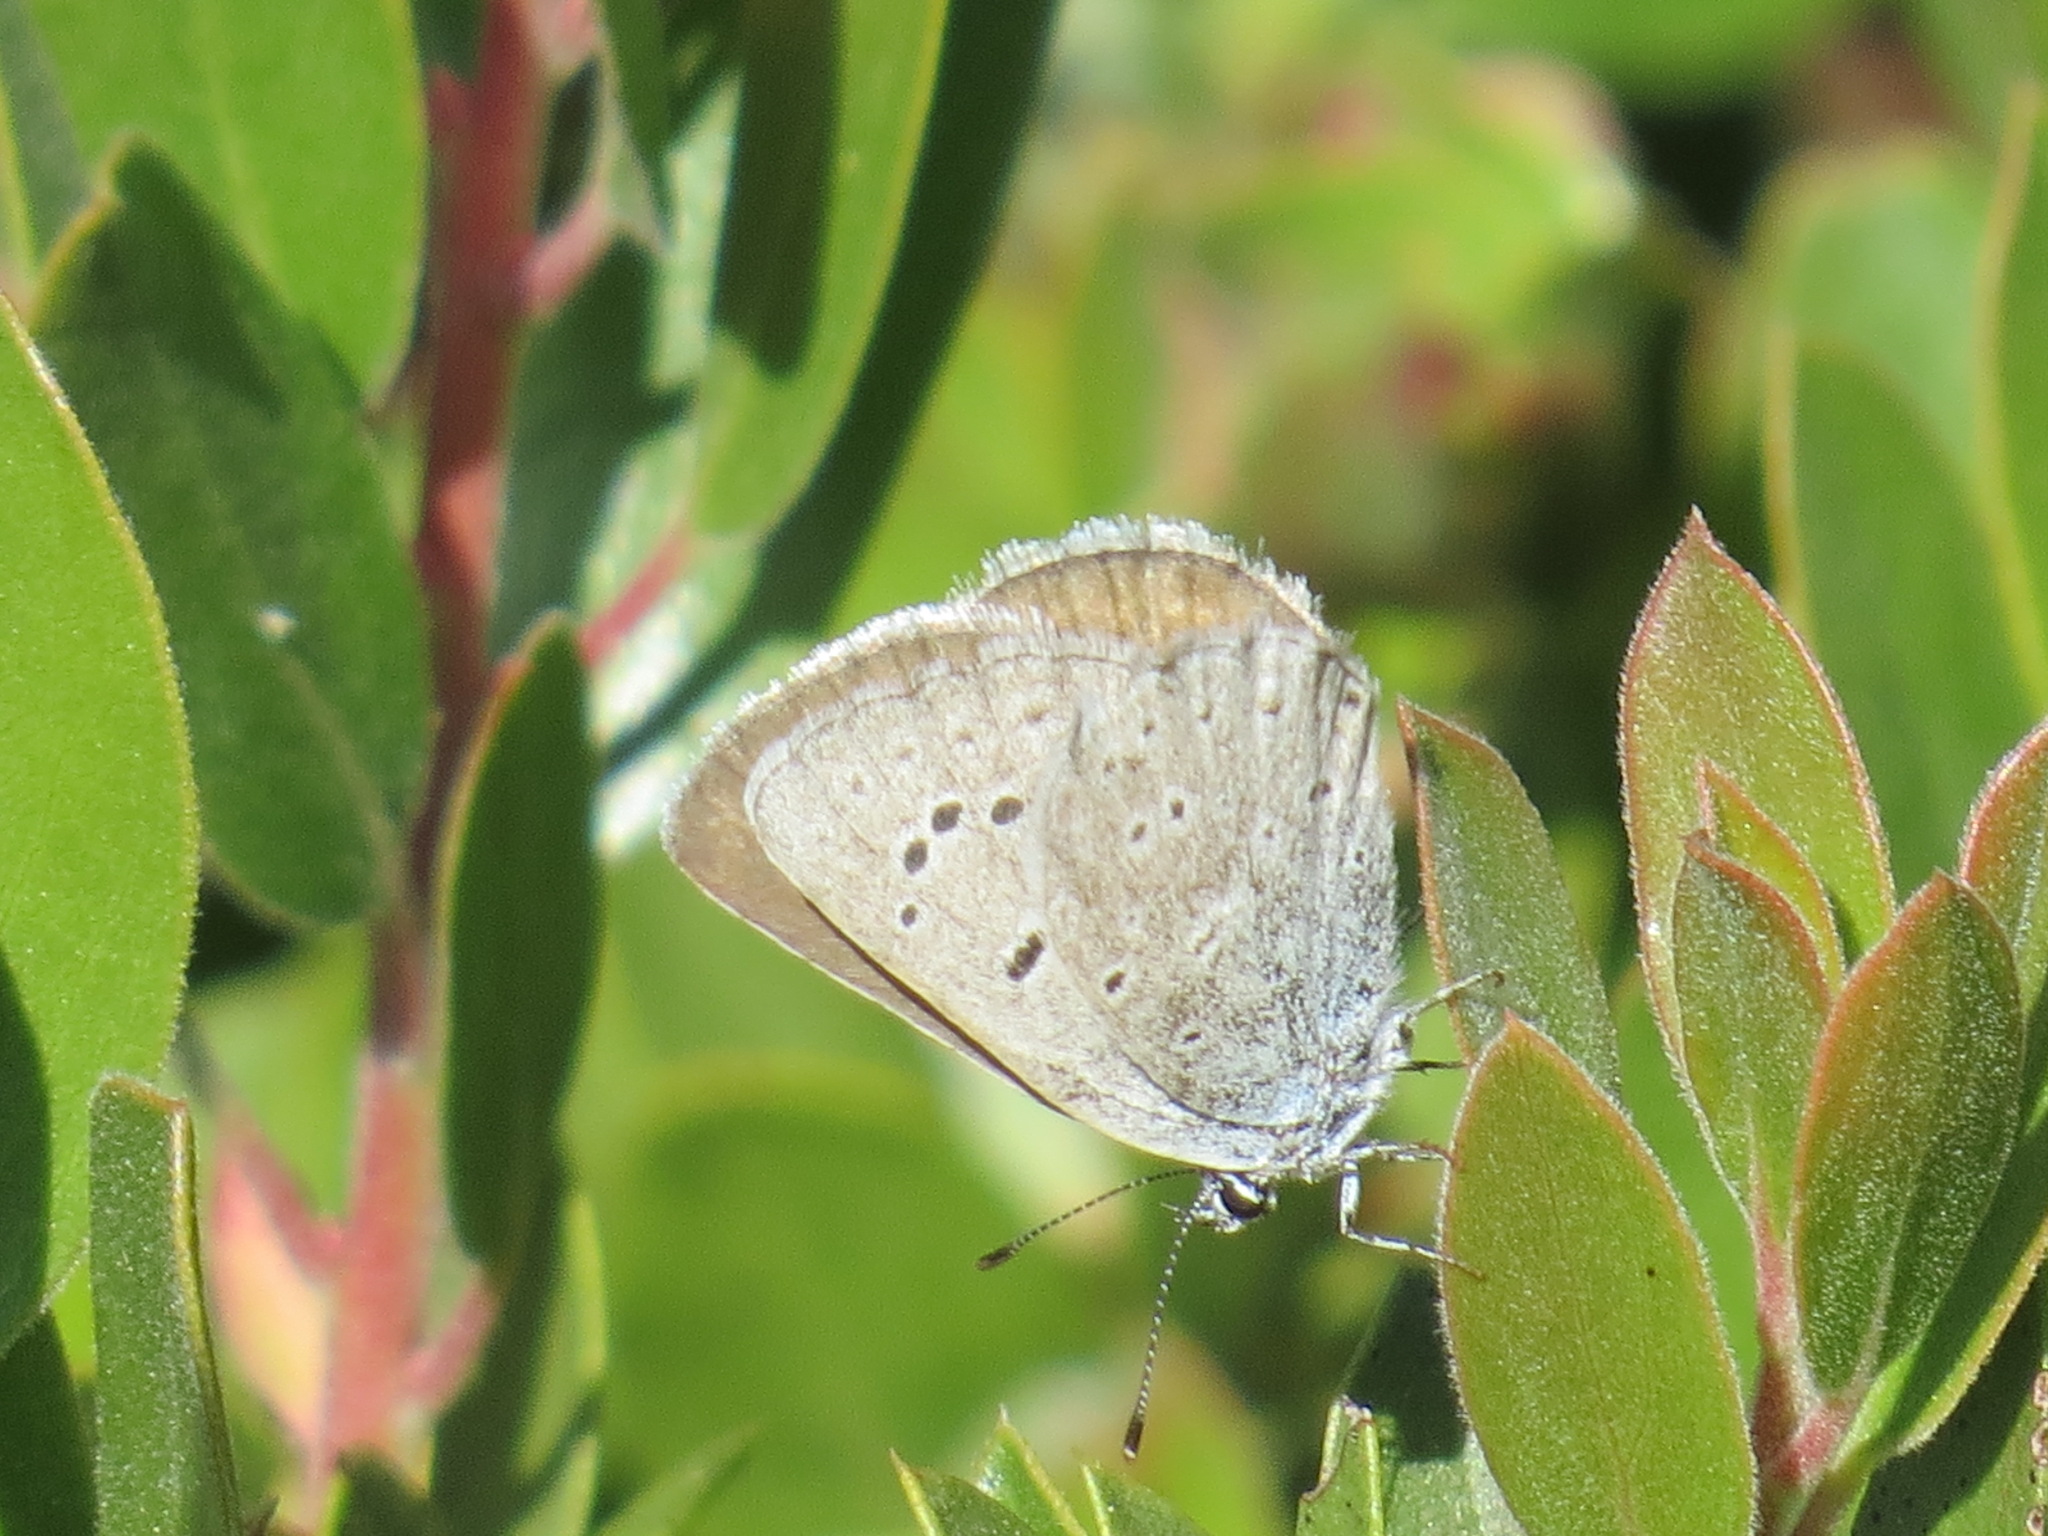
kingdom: Animalia
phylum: Arthropoda
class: Insecta
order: Lepidoptera
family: Lycaenidae
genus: Icaricia
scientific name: Icaricia icarioides
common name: Boisduval's blue
